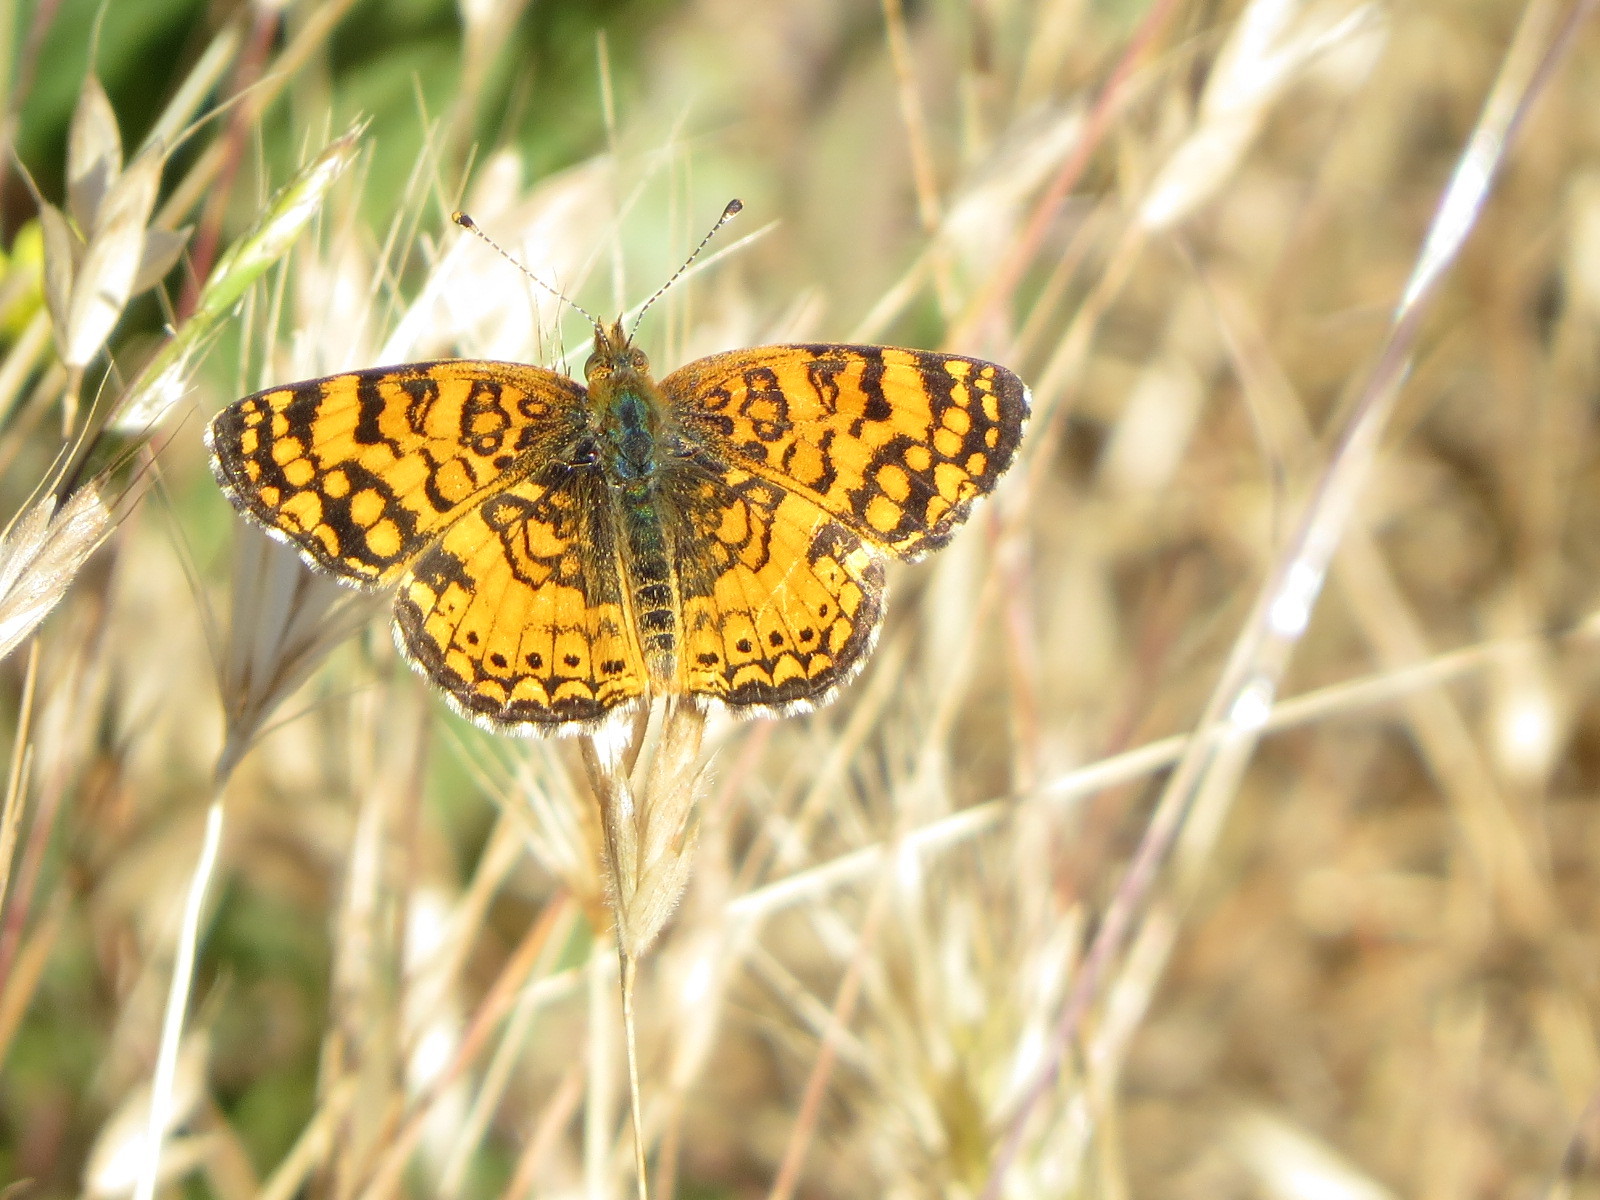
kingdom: Animalia
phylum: Arthropoda
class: Insecta
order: Lepidoptera
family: Nymphalidae
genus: Eresia
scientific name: Eresia aveyrona
